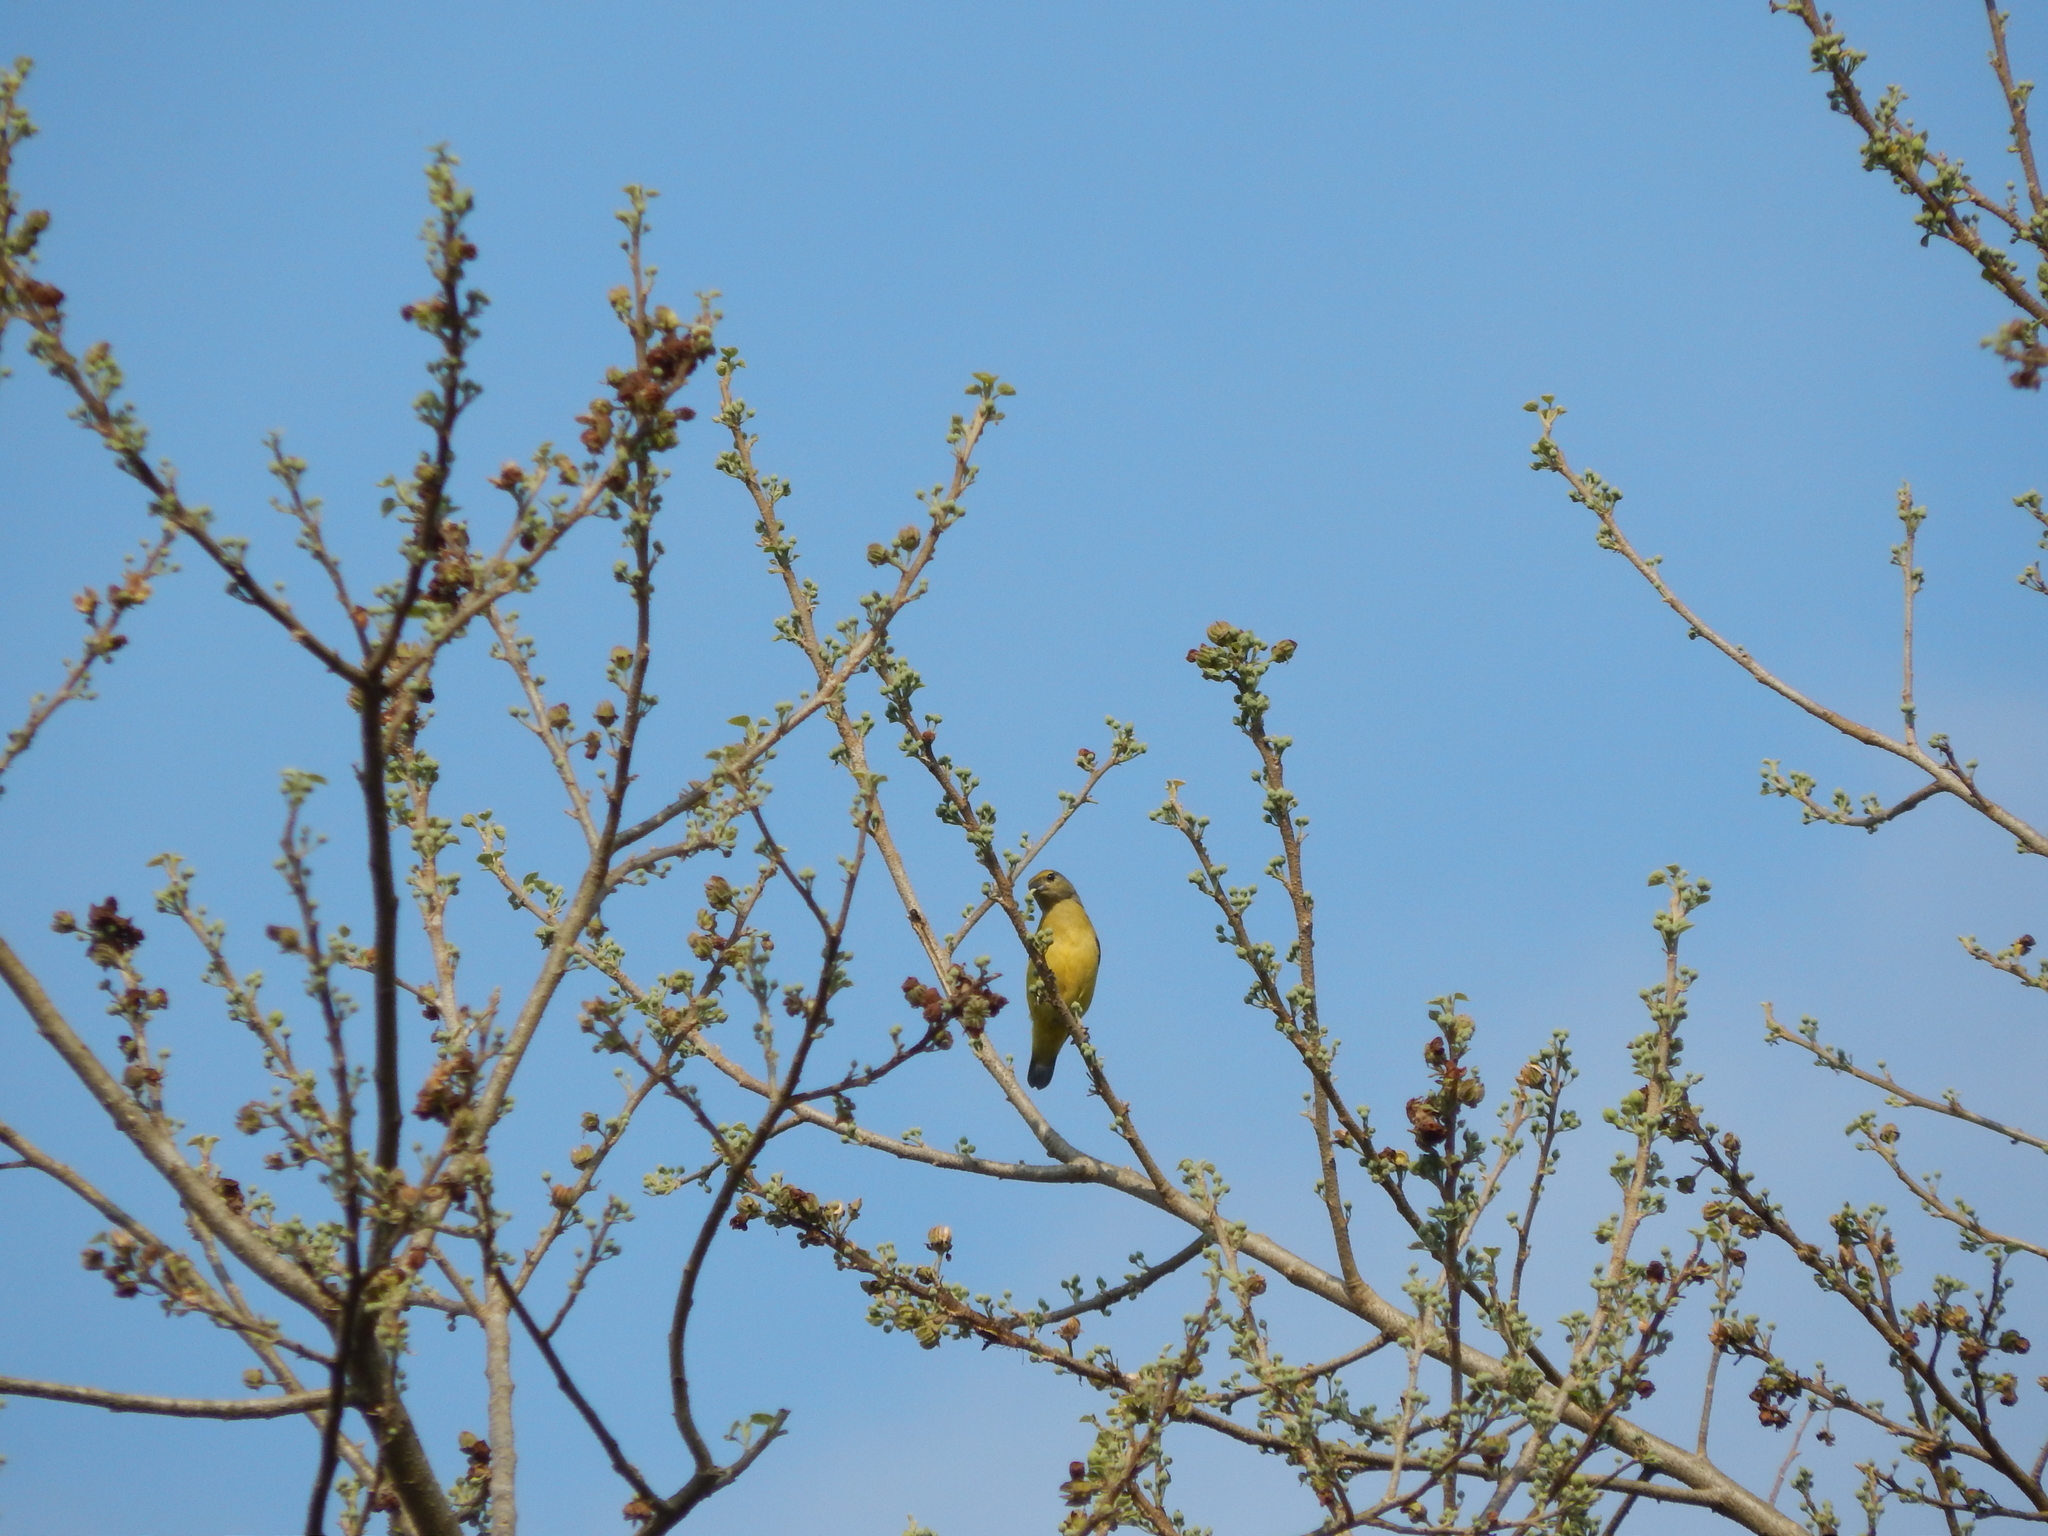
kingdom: Animalia
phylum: Chordata
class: Aves
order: Passeriformes
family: Fringillidae
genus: Euphonia
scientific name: Euphonia affinis
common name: Scrub euphonia
